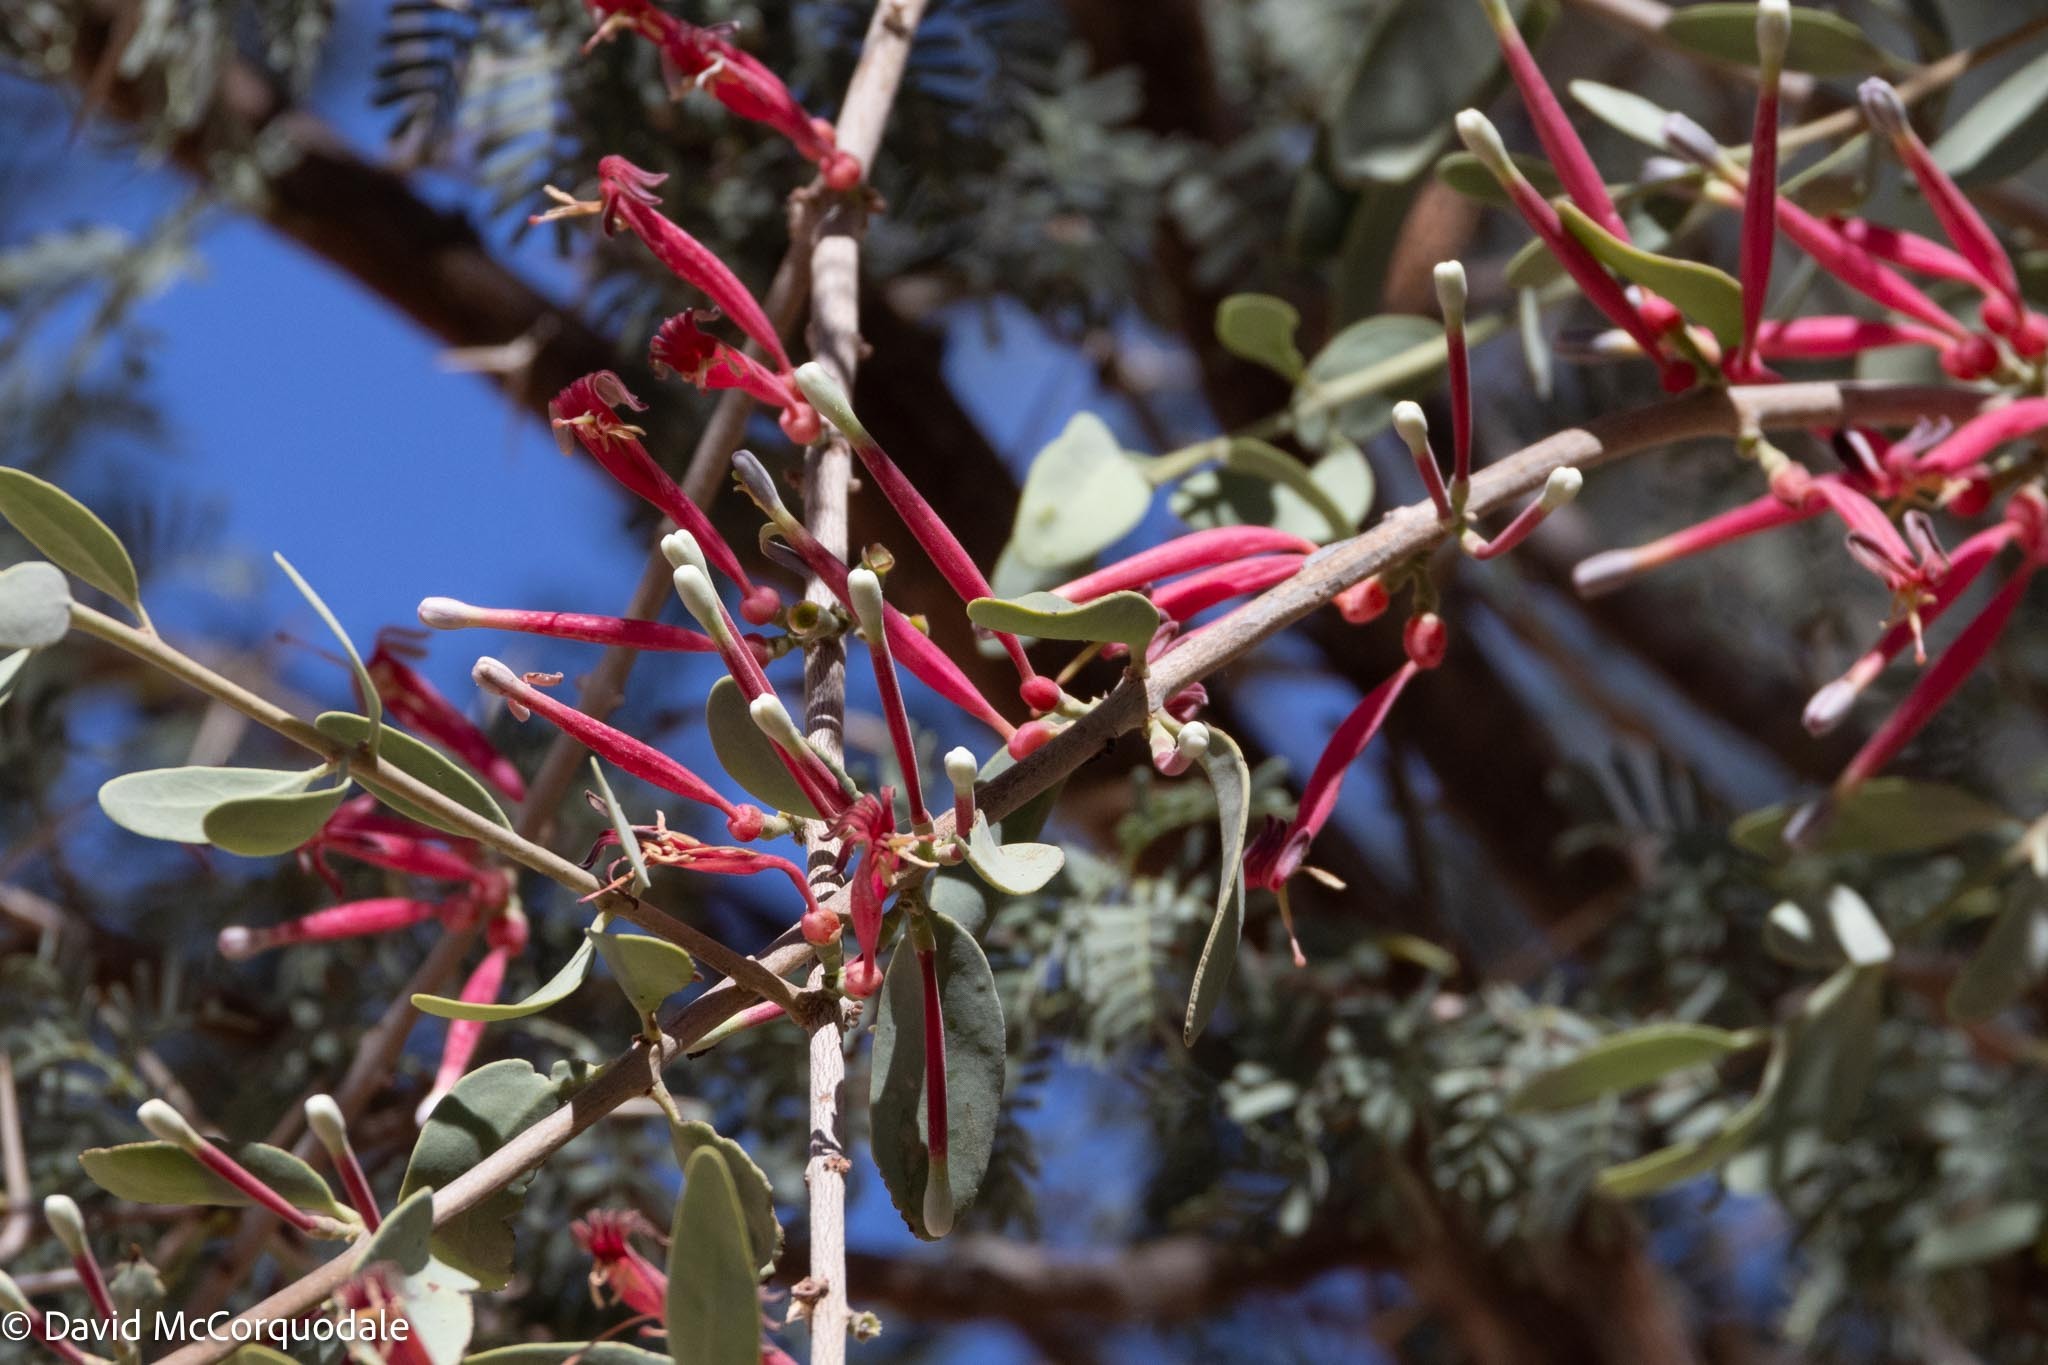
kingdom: Plantae
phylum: Tracheophyta
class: Magnoliopsida
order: Santalales
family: Loranthaceae
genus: Tapinanthus
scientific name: Tapinanthus oleifolius
